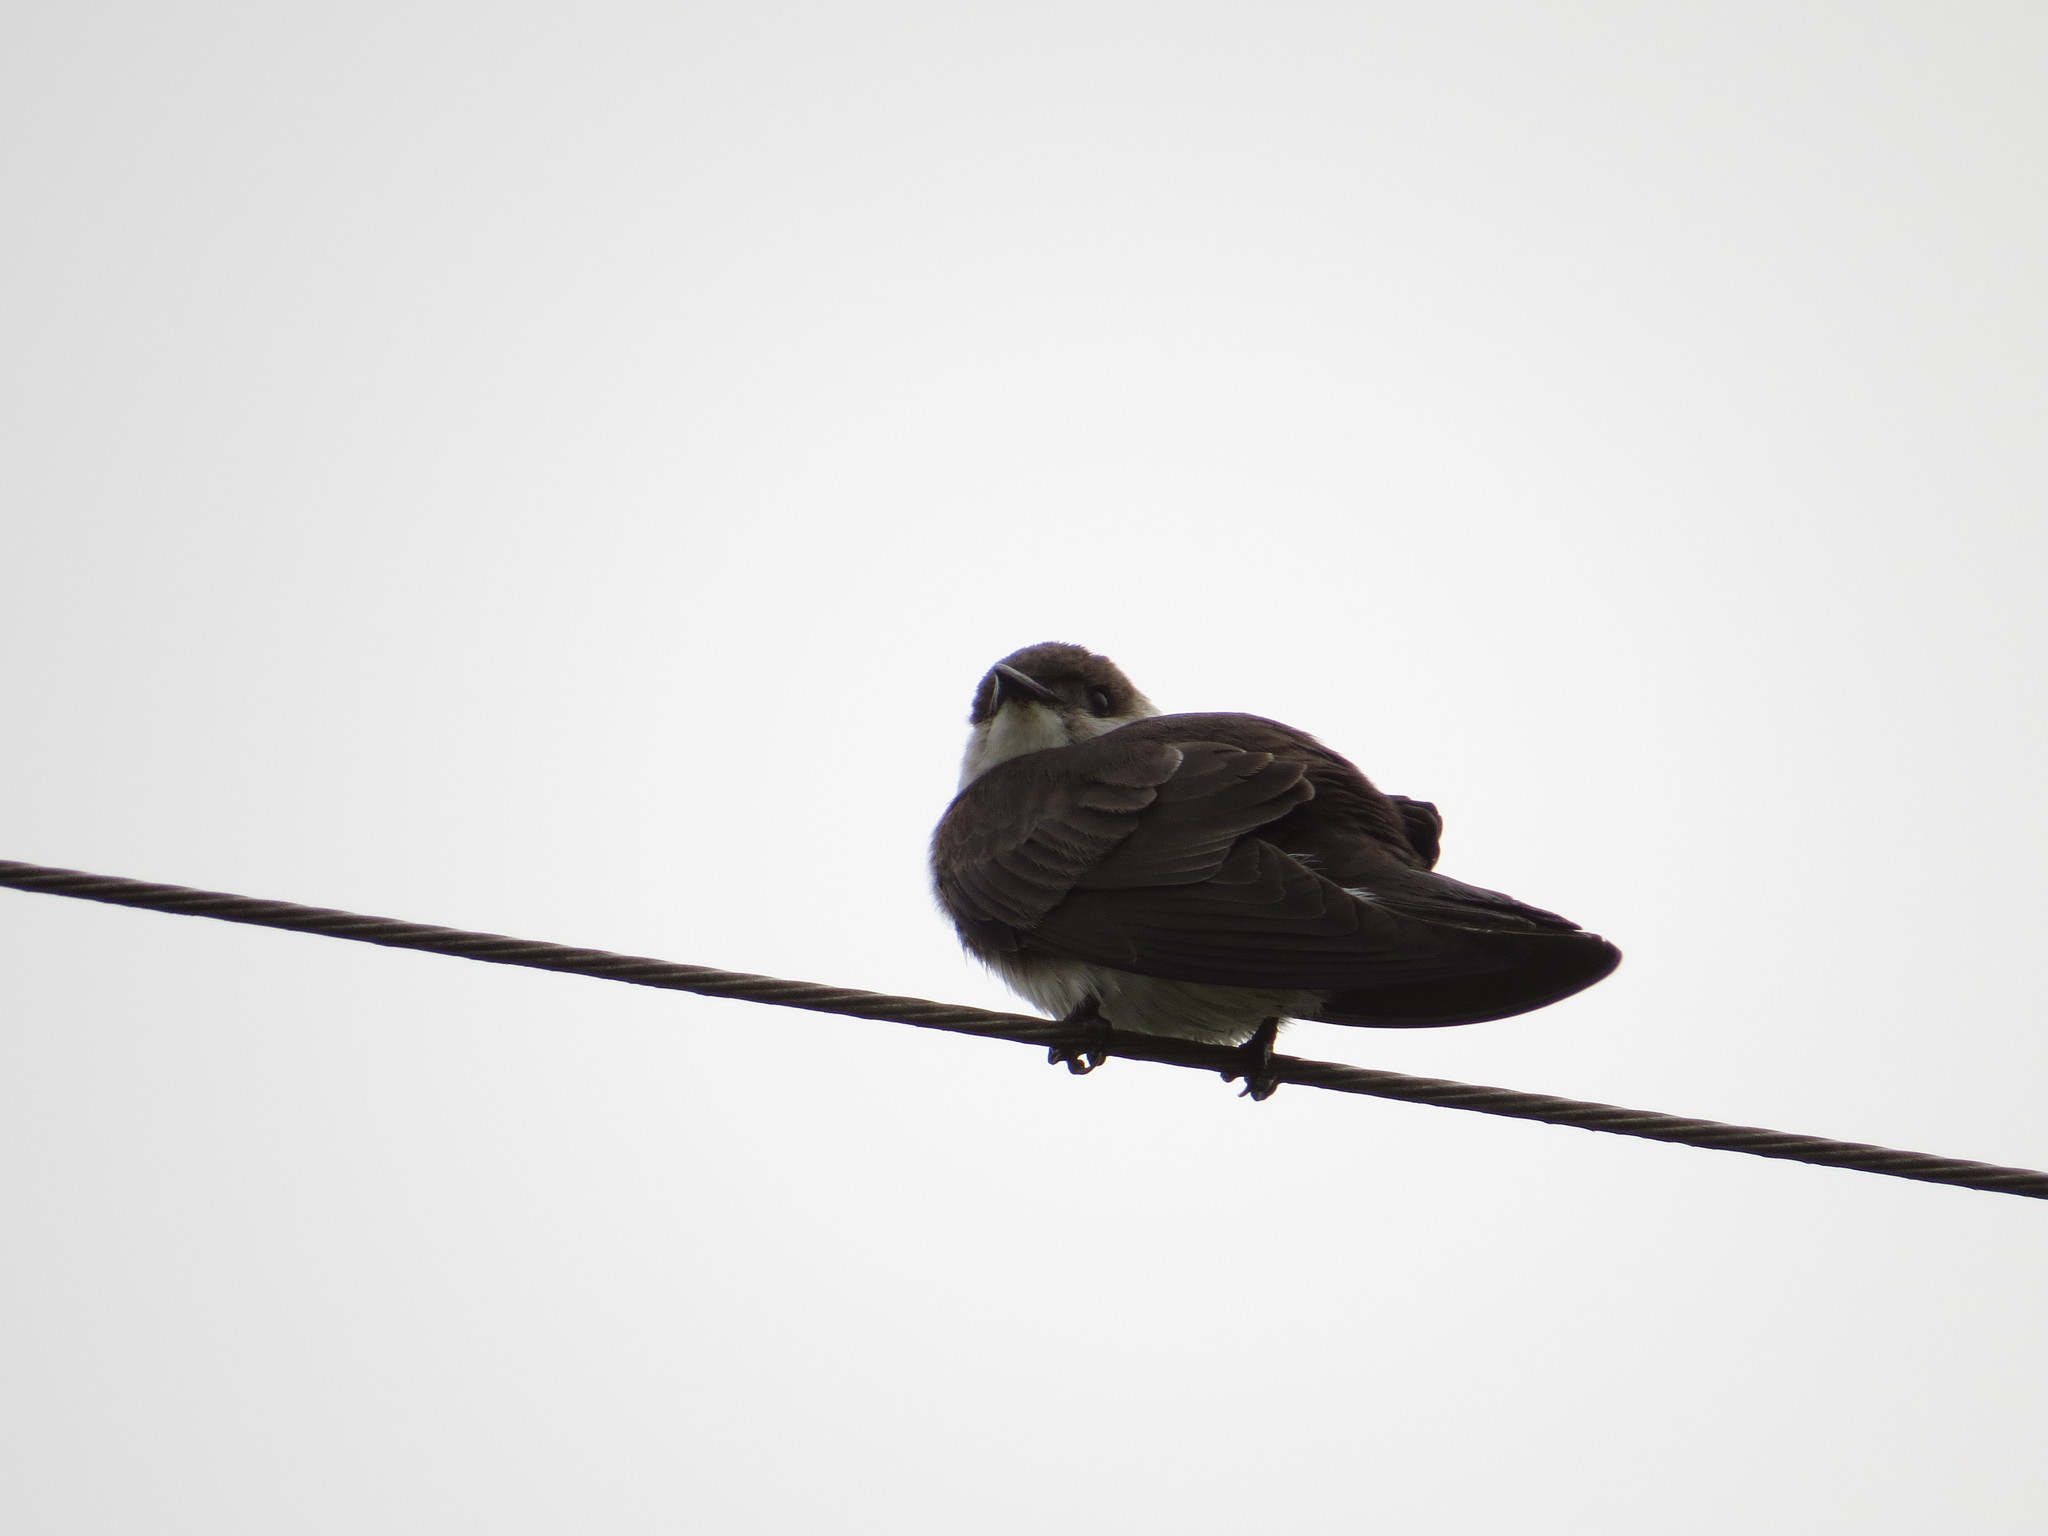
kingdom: Animalia
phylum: Chordata
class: Aves
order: Passeriformes
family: Hirundinidae
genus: Progne
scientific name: Progne tapera
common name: Brown-chested martin
